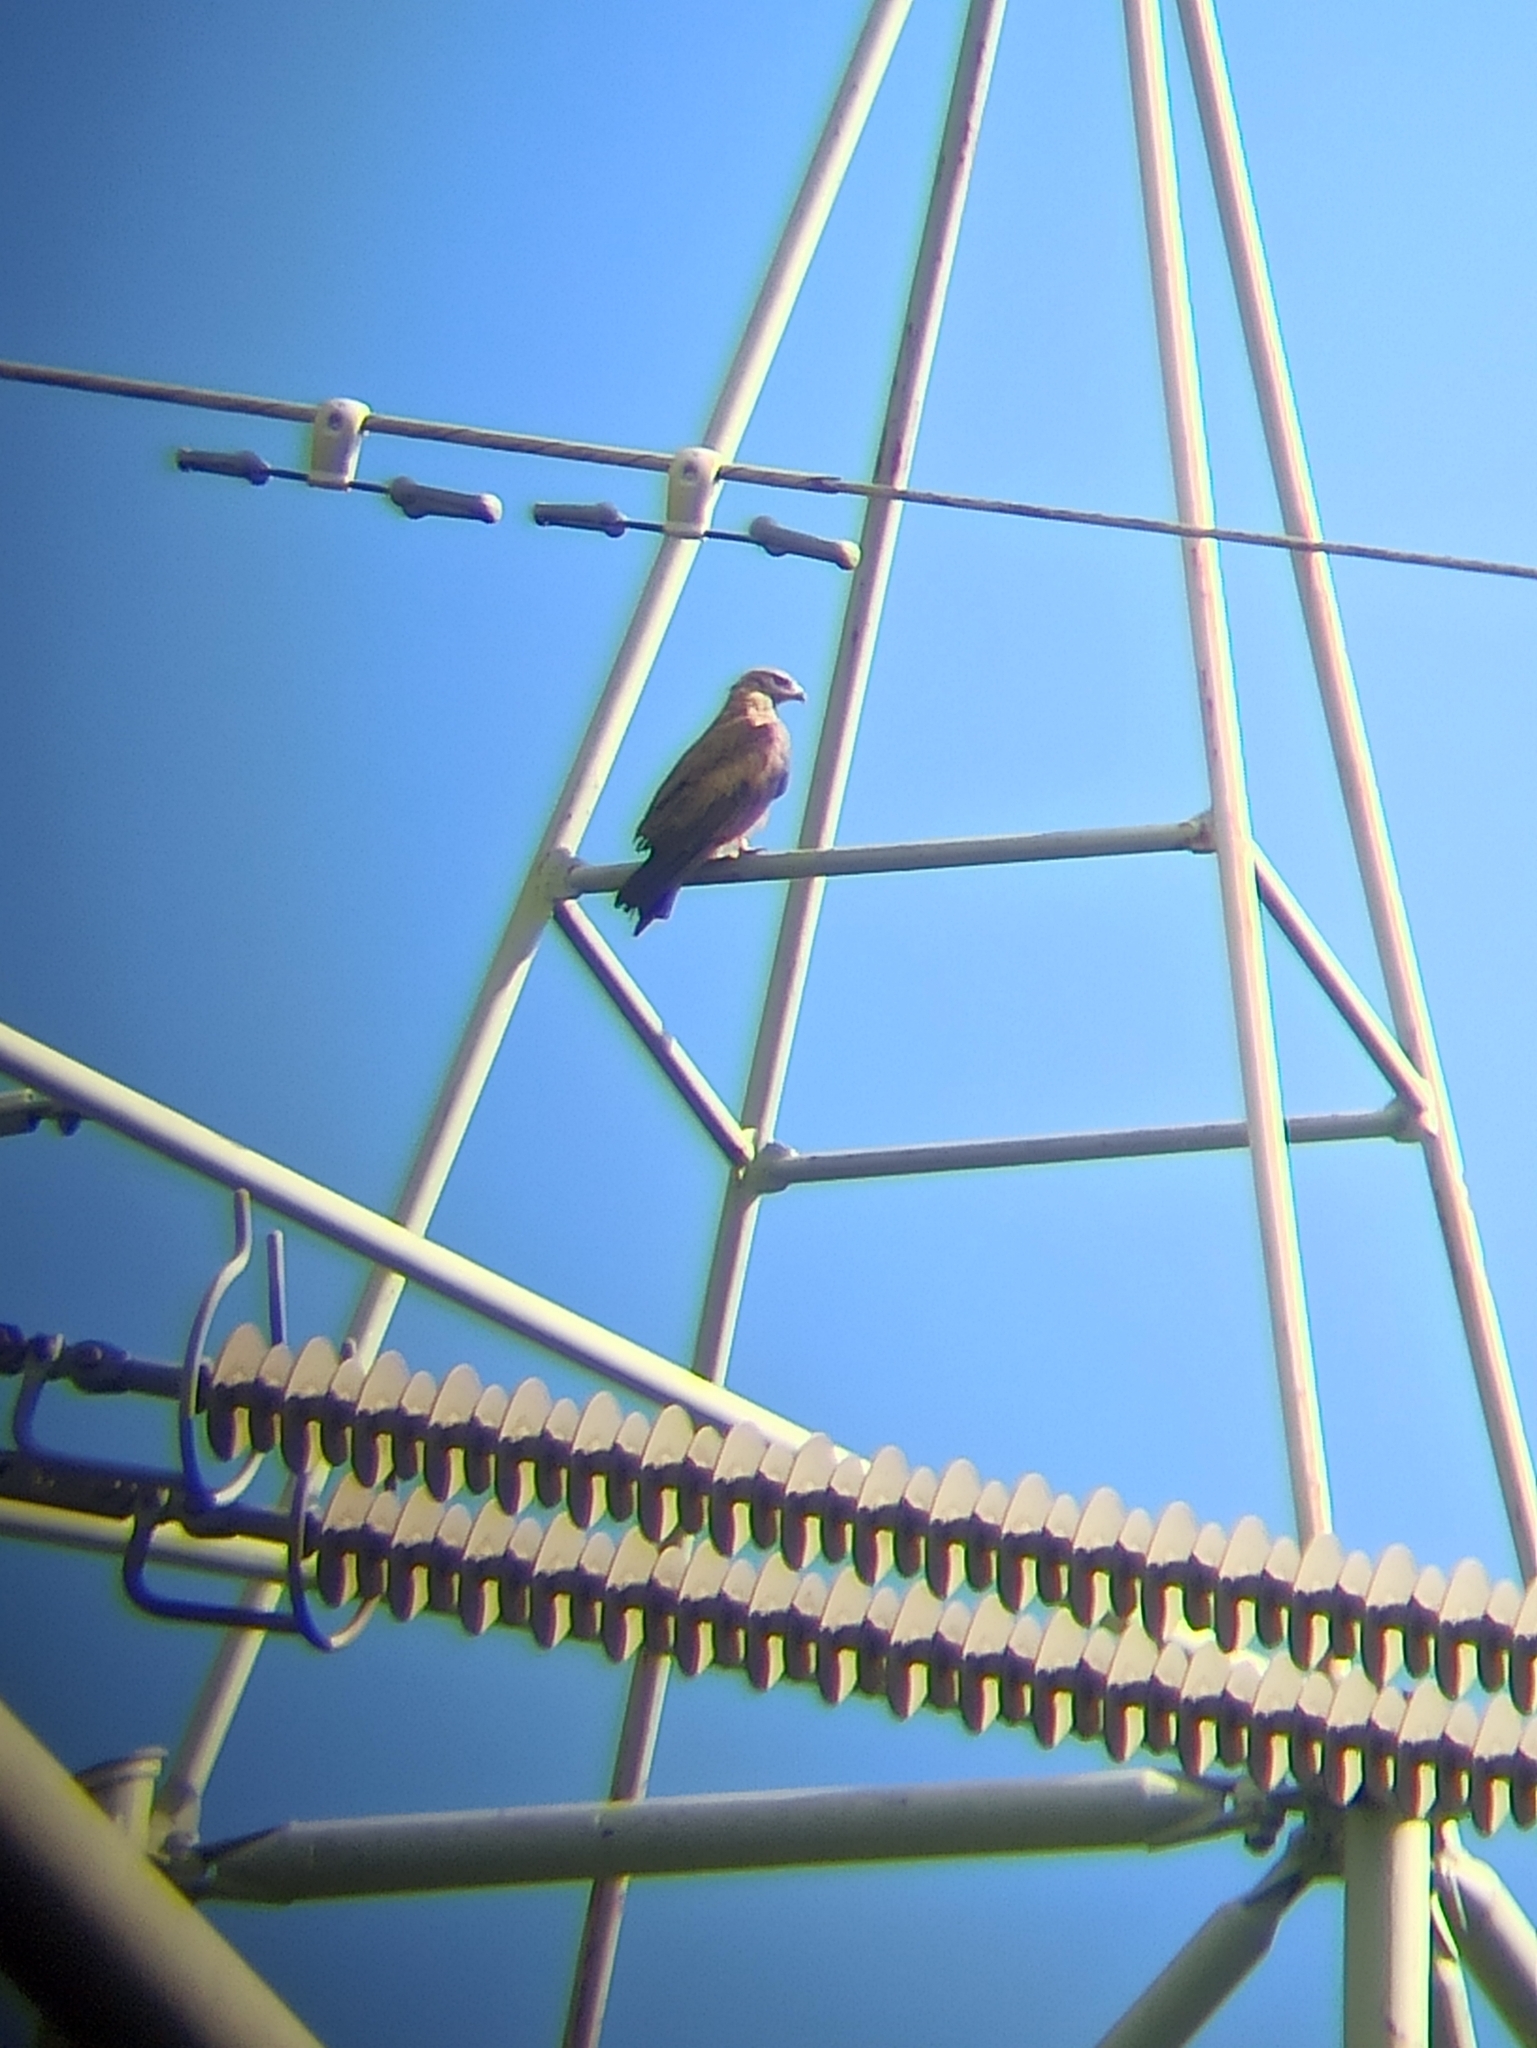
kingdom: Animalia
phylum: Chordata
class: Aves
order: Accipitriformes
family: Accipitridae
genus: Milvus
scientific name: Milvus migrans
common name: Black kite
